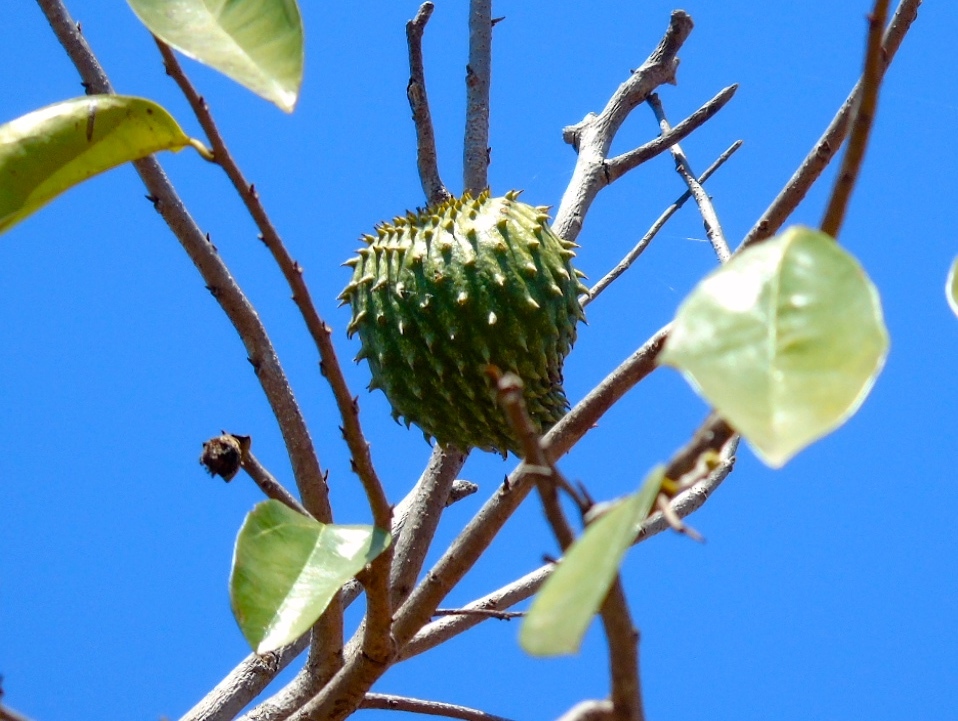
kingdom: Plantae
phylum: Tracheophyta
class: Magnoliopsida
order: Magnoliales
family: Annonaceae
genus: Annona
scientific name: Annona muricata
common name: Soursop
